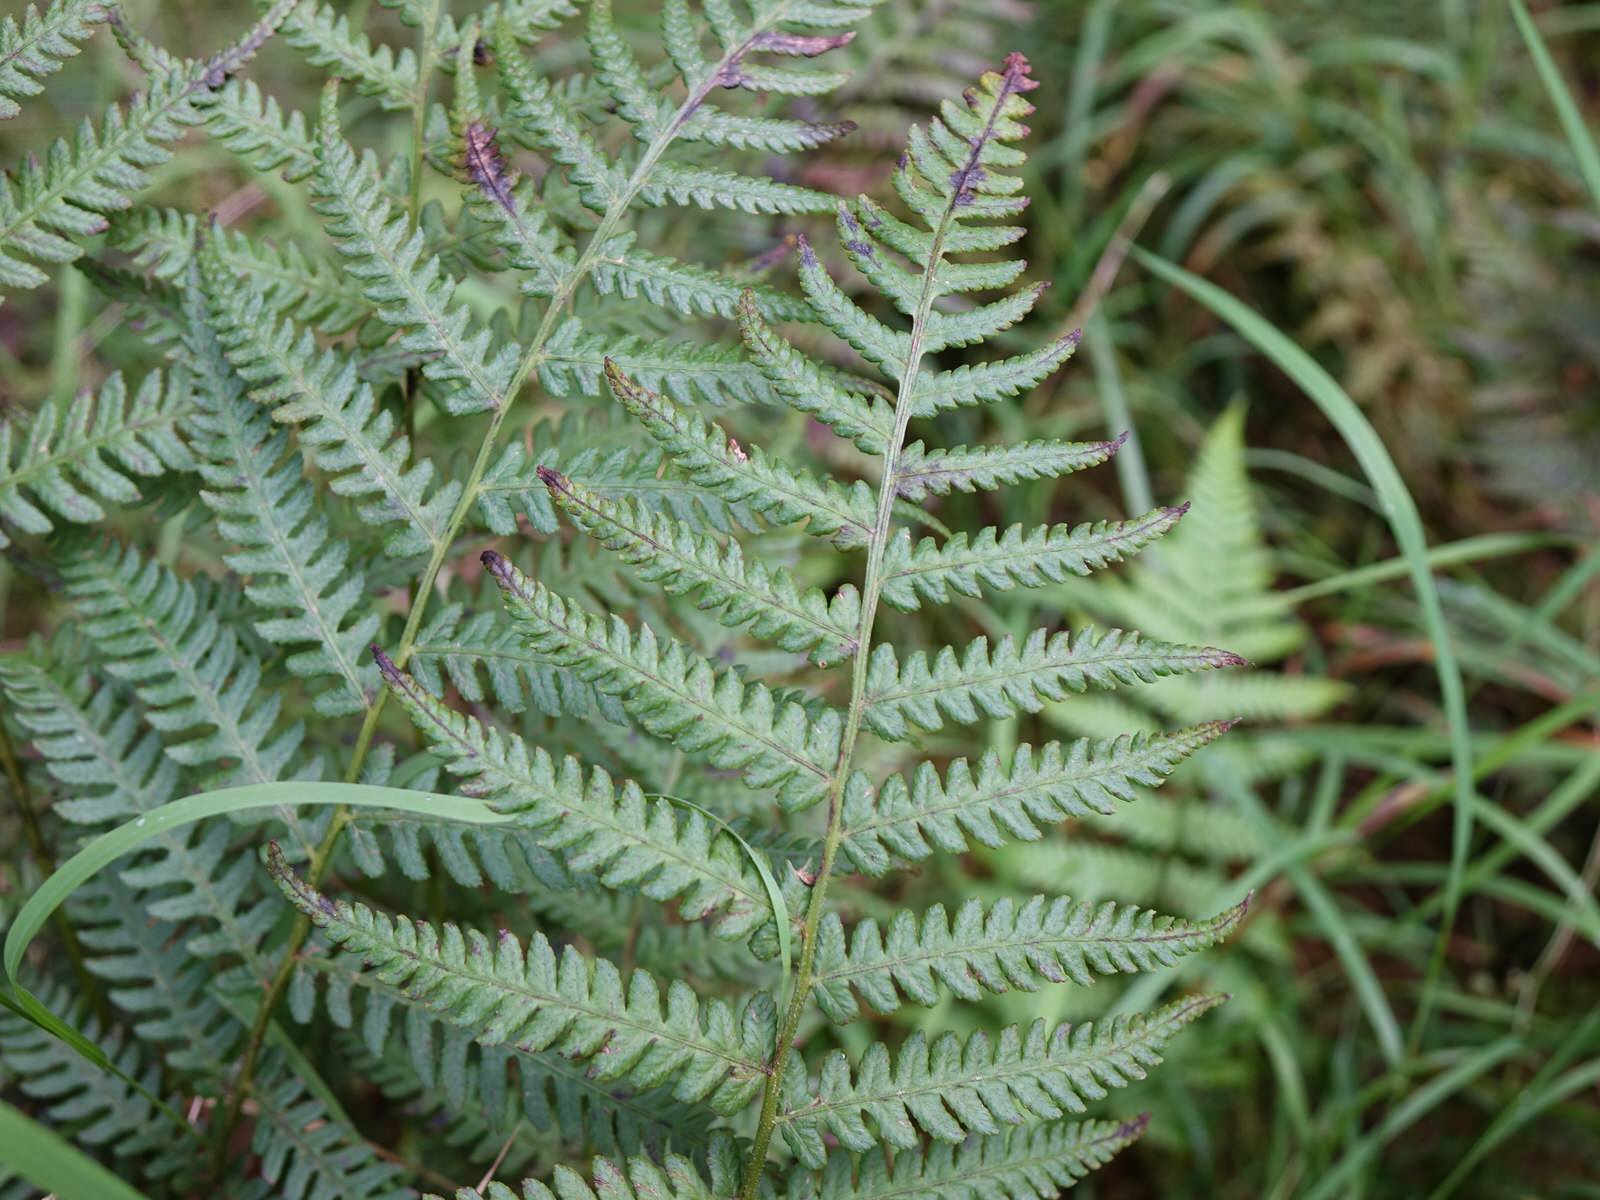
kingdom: Plantae
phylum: Tracheophyta
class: Polypodiopsida
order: Polypodiales
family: Athyriaceae
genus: Diplazium
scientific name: Diplazium congruum
